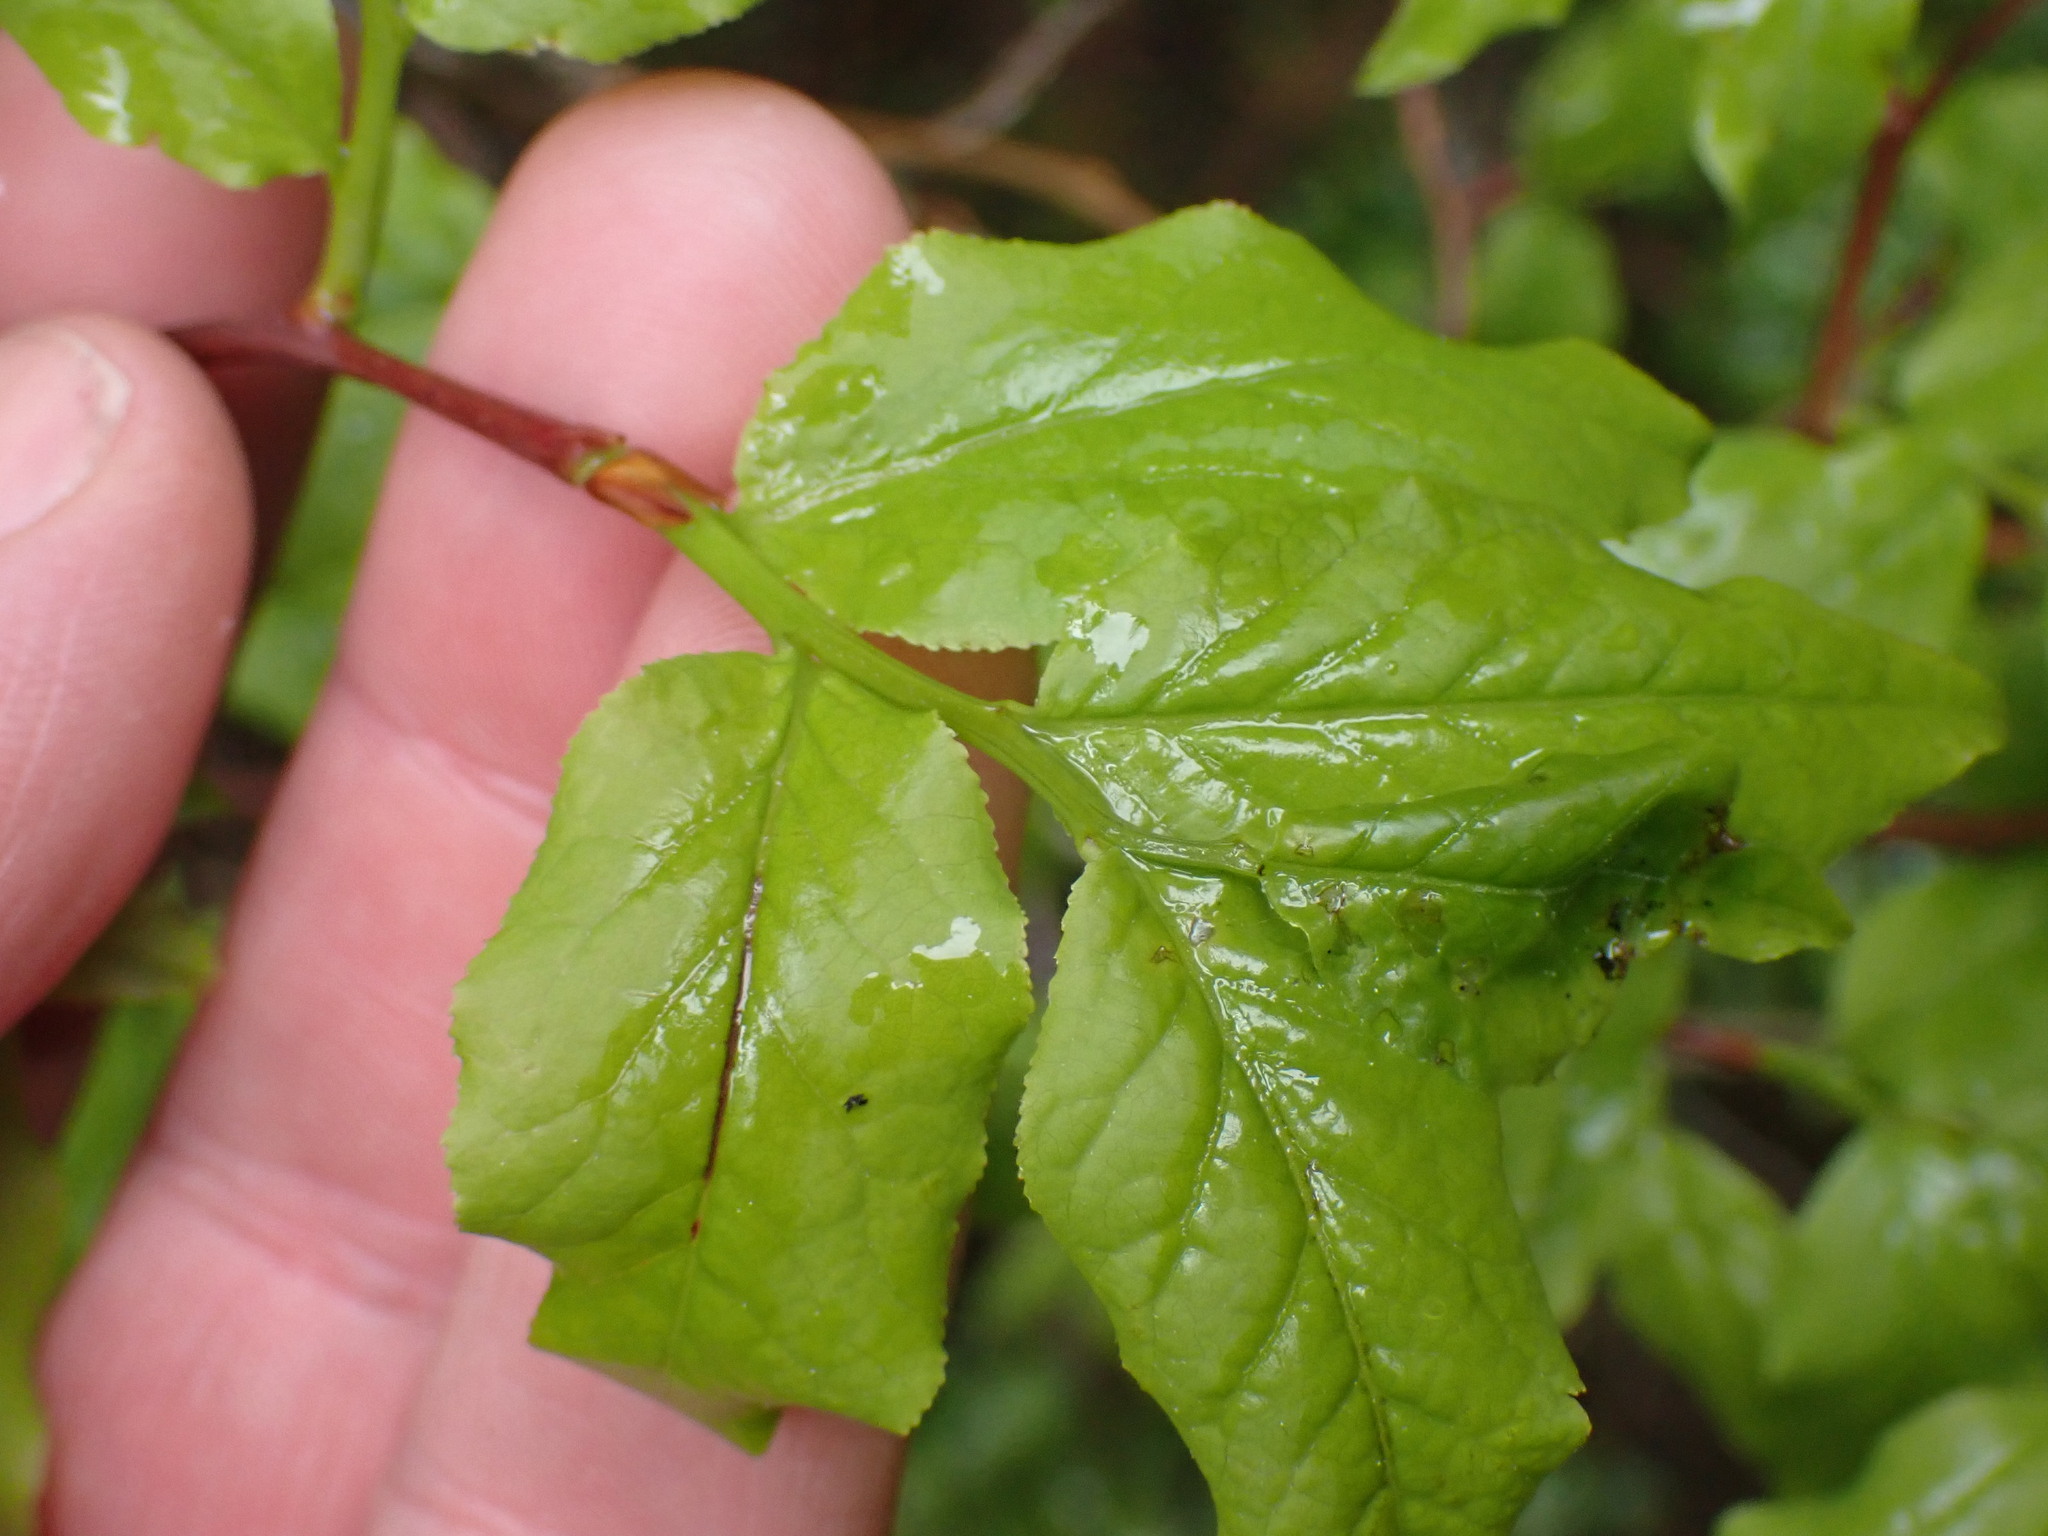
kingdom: Plantae
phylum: Tracheophyta
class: Magnoliopsida
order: Ericales
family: Ericaceae
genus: Vaccinium
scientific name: Vaccinium membranaceum
